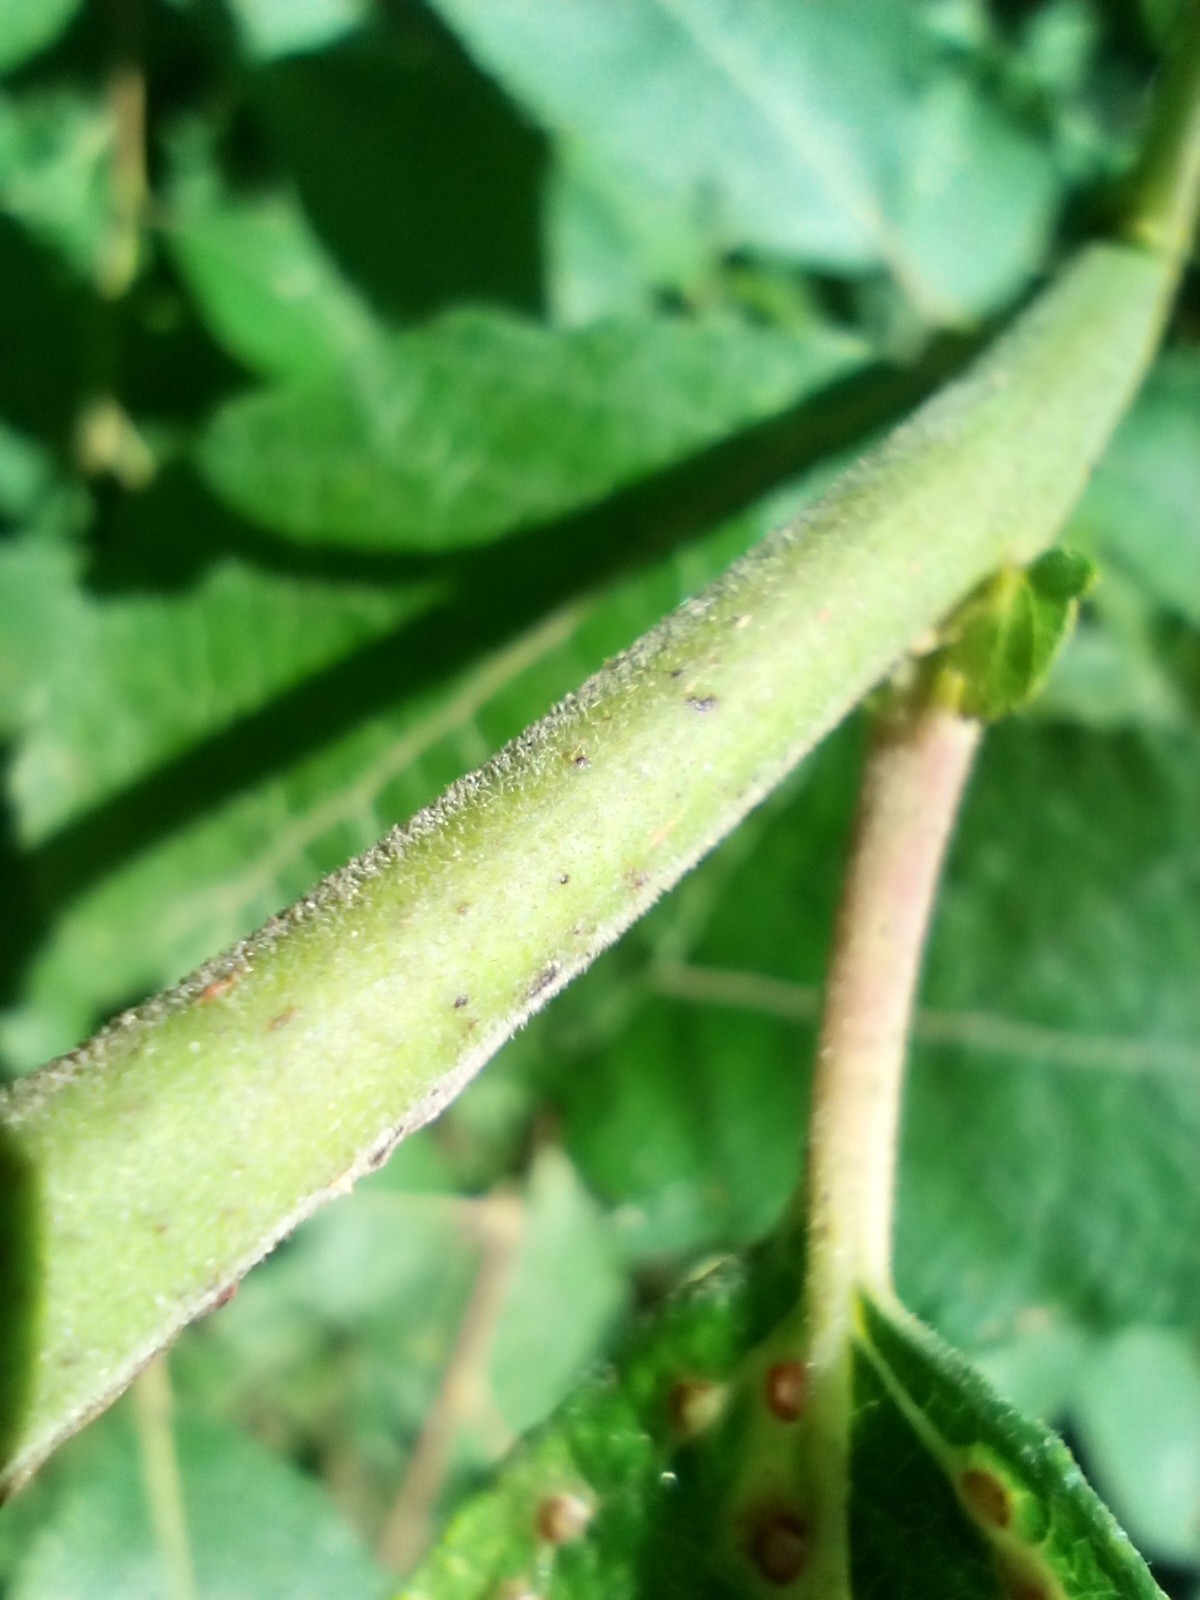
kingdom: Plantae
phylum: Tracheophyta
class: Magnoliopsida
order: Malpighiales
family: Salicaceae
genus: Salix
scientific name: Salix caprea
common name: Goat willow
